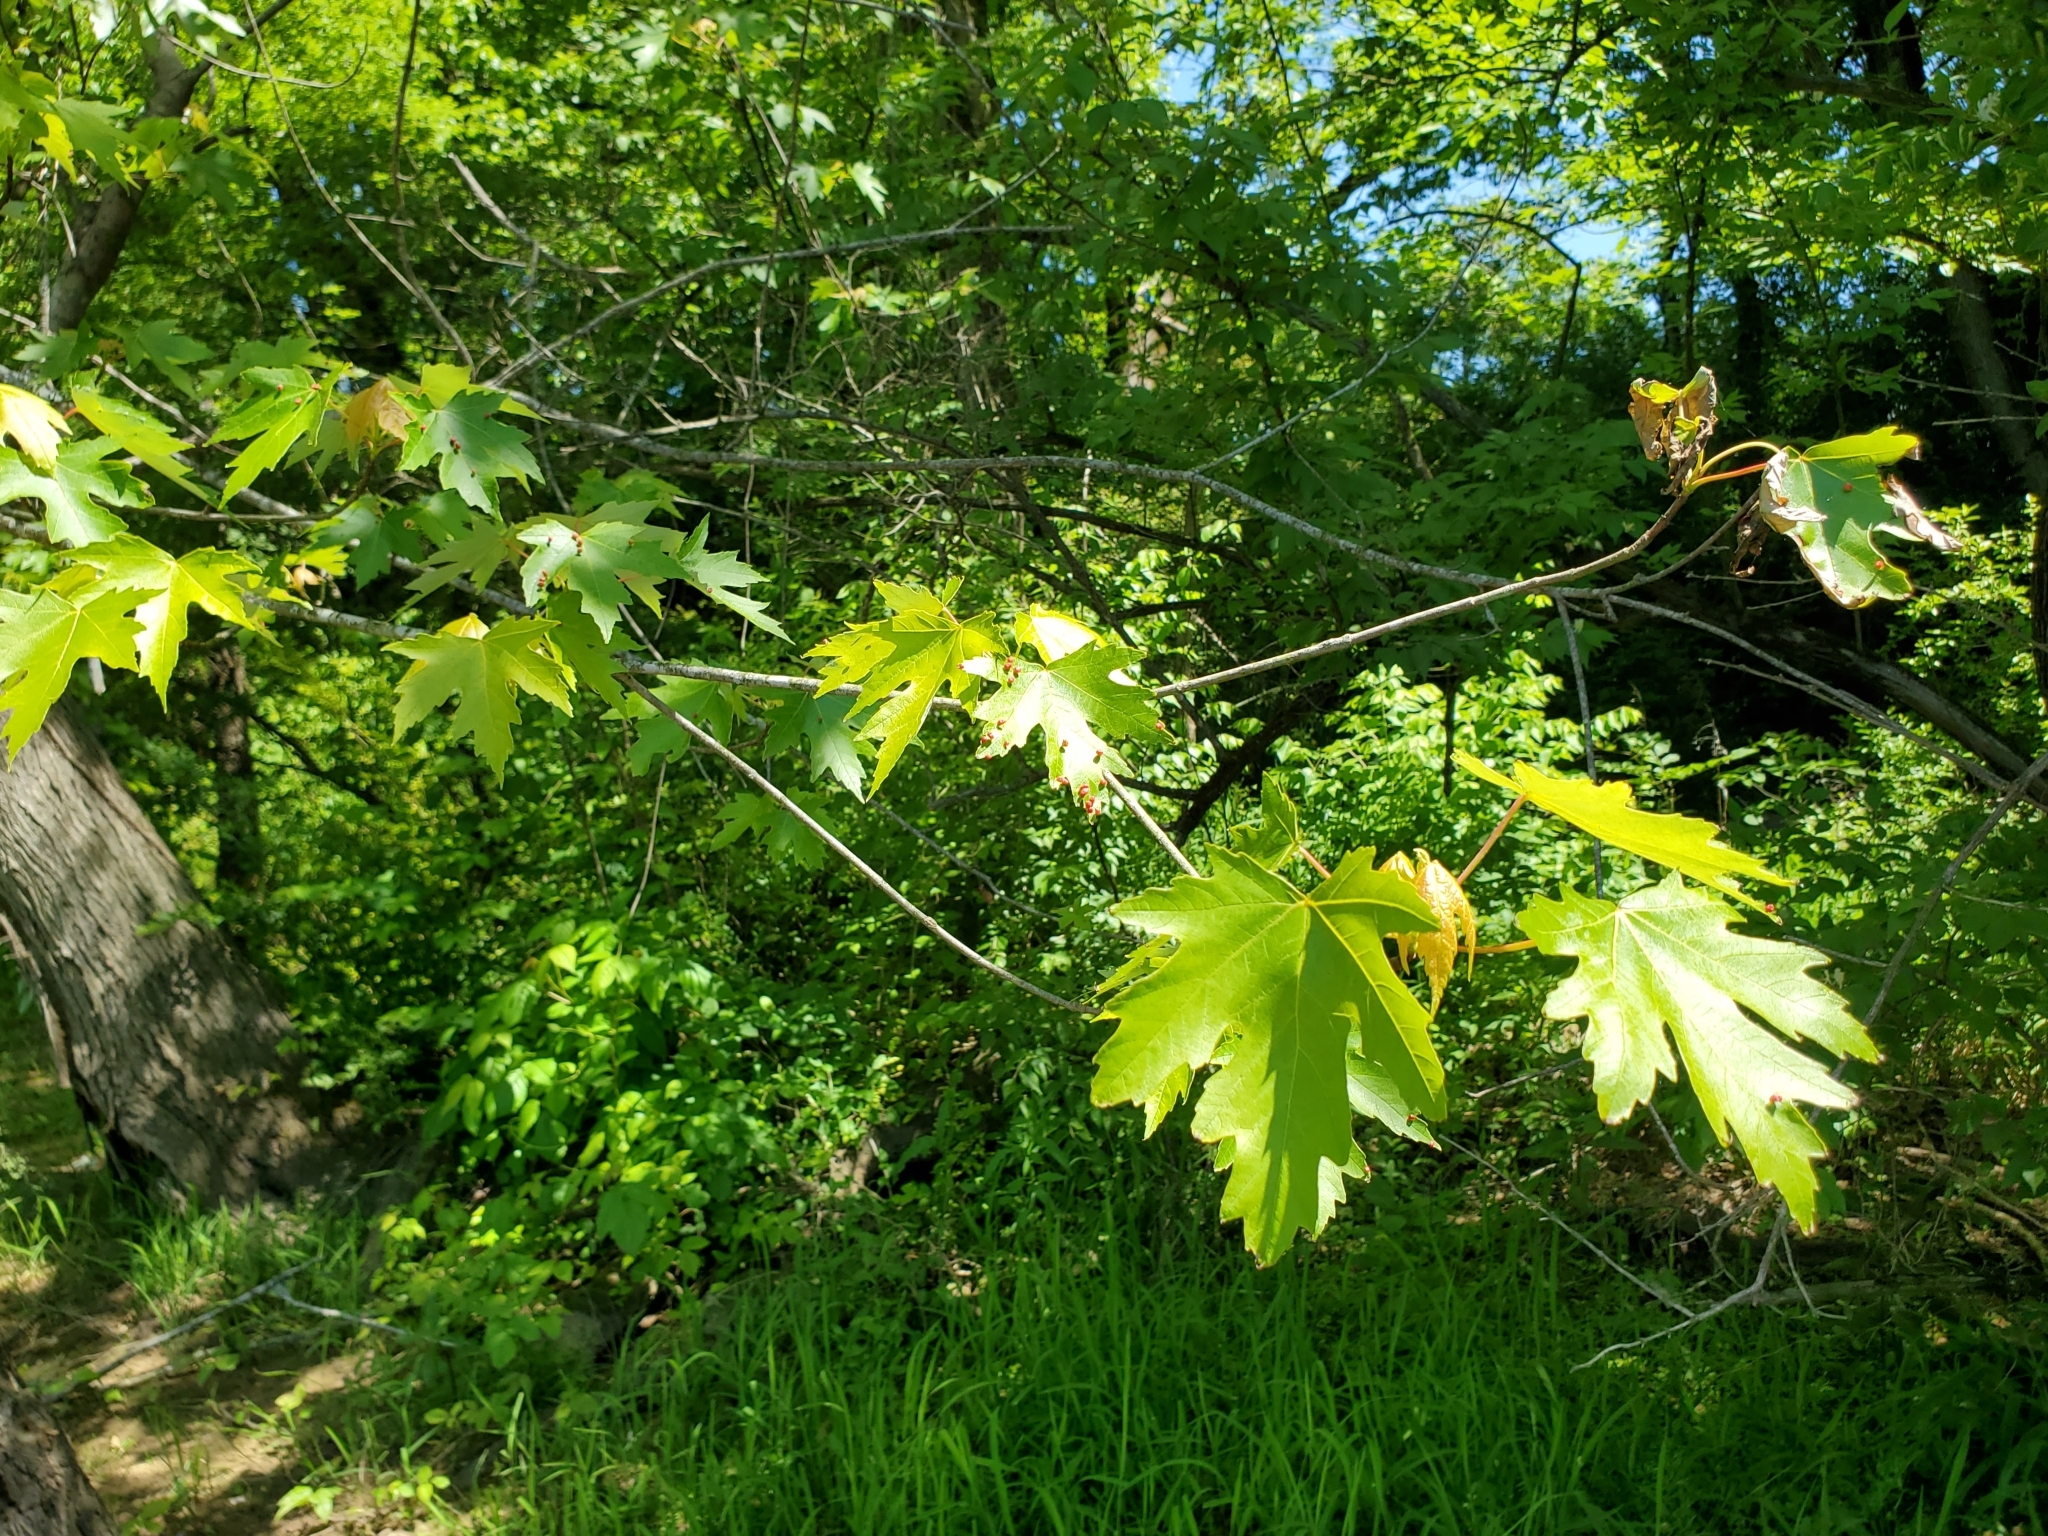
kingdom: Animalia
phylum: Arthropoda
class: Arachnida
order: Trombidiformes
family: Eriophyidae
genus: Vasates
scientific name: Vasates quadripedes
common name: Maple bladder gall mite
